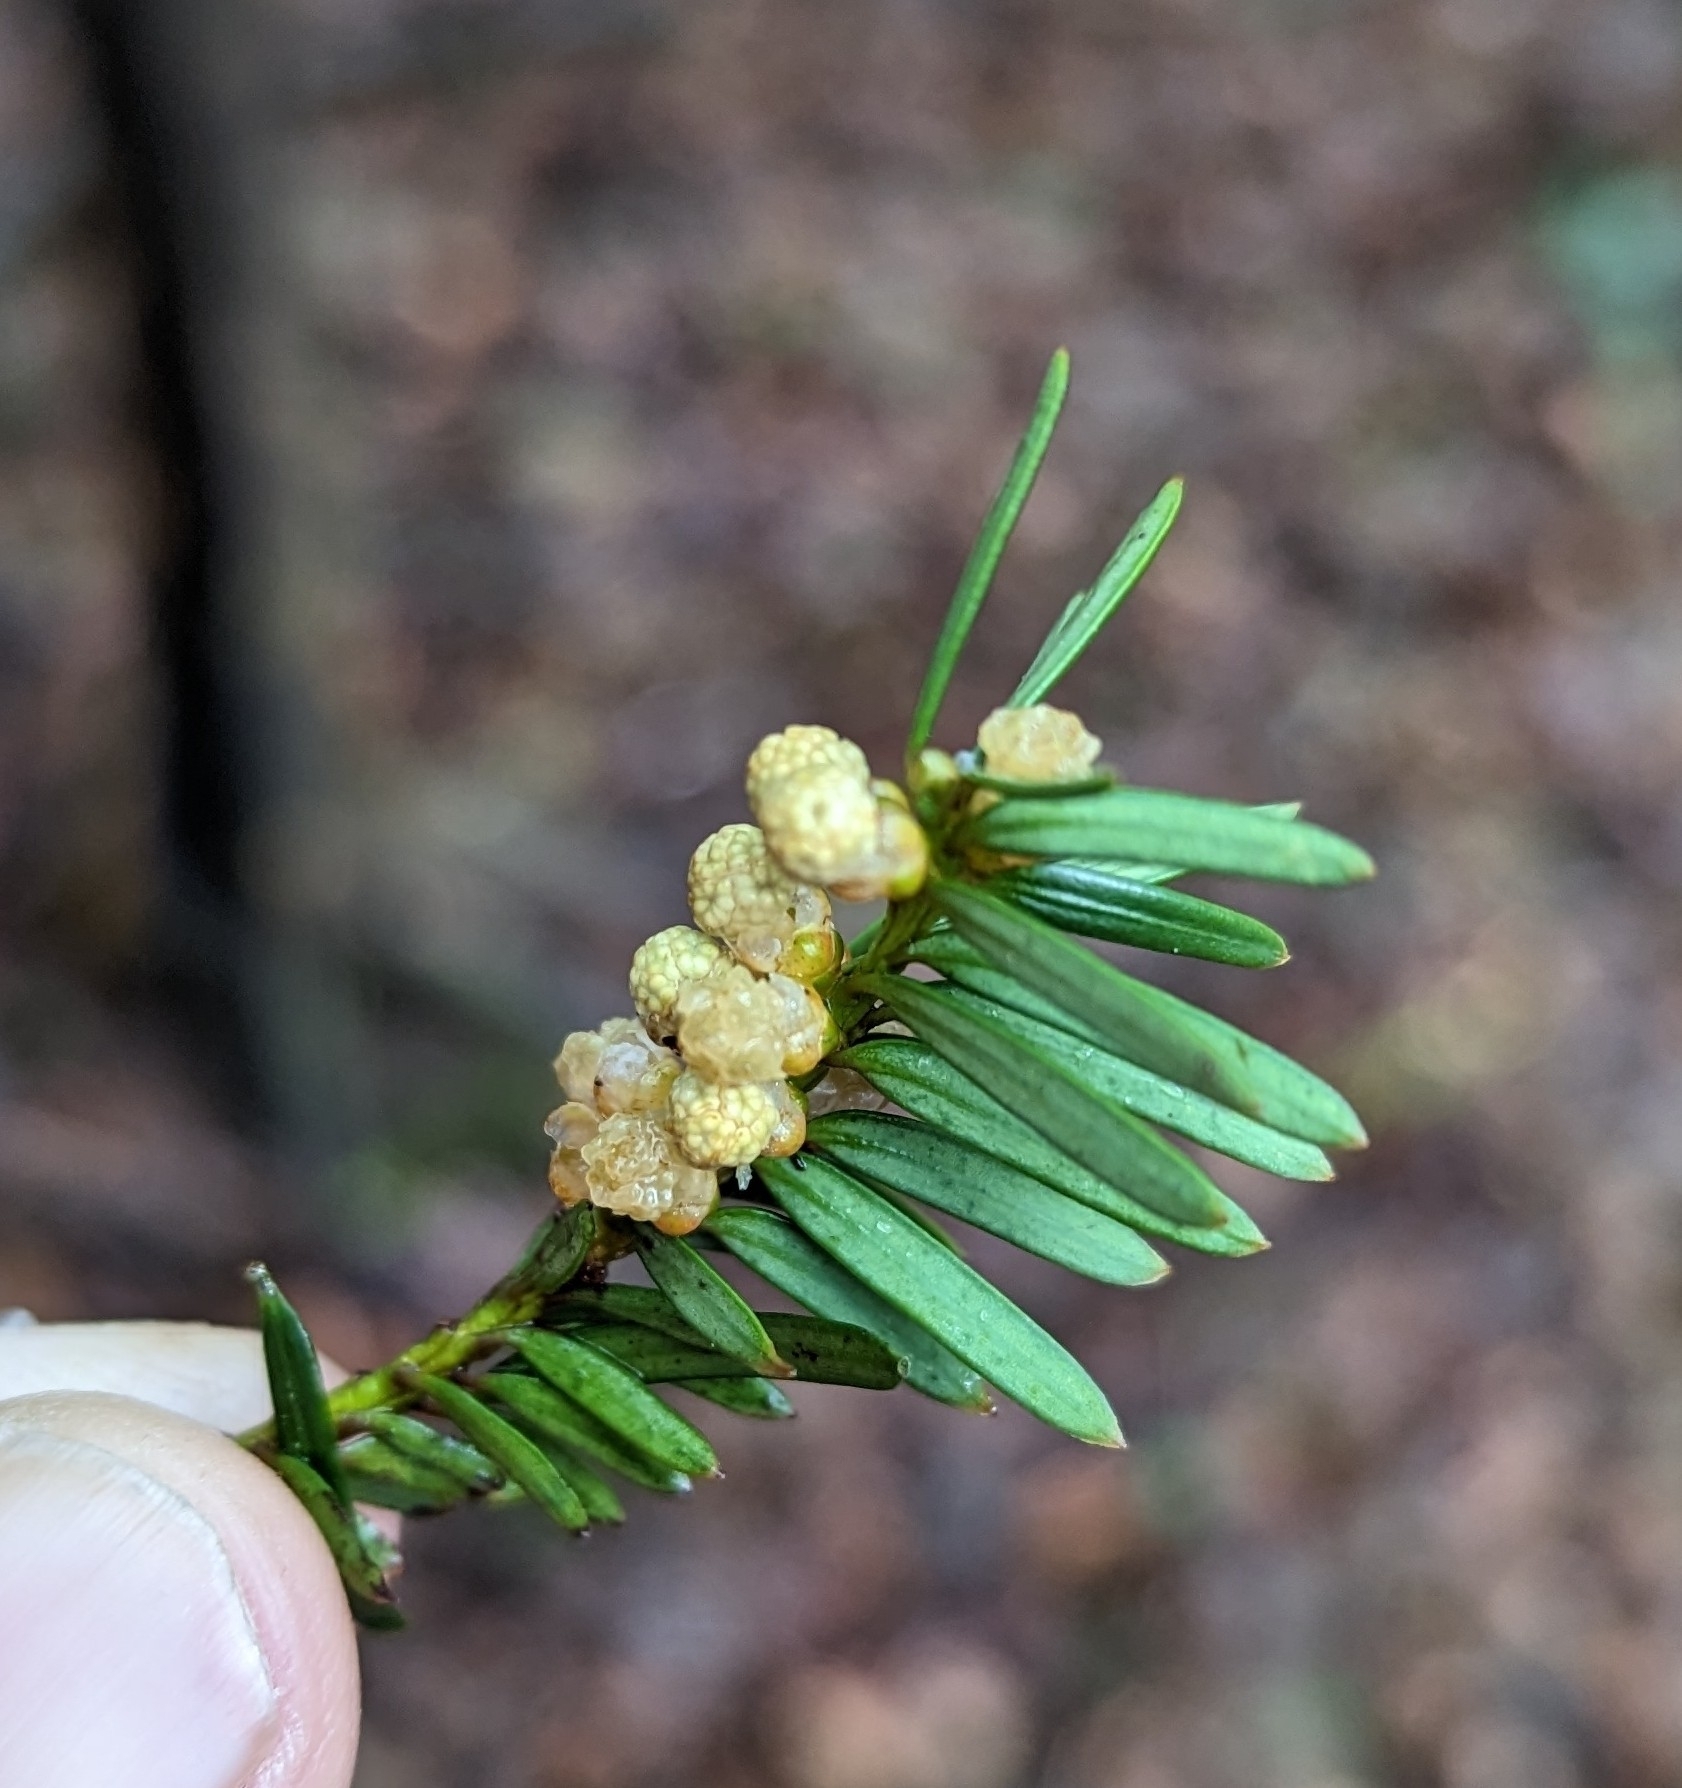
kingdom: Plantae
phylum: Tracheophyta
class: Pinopsida
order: Pinales
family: Taxaceae
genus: Taxus
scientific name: Taxus baccata
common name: Yew
